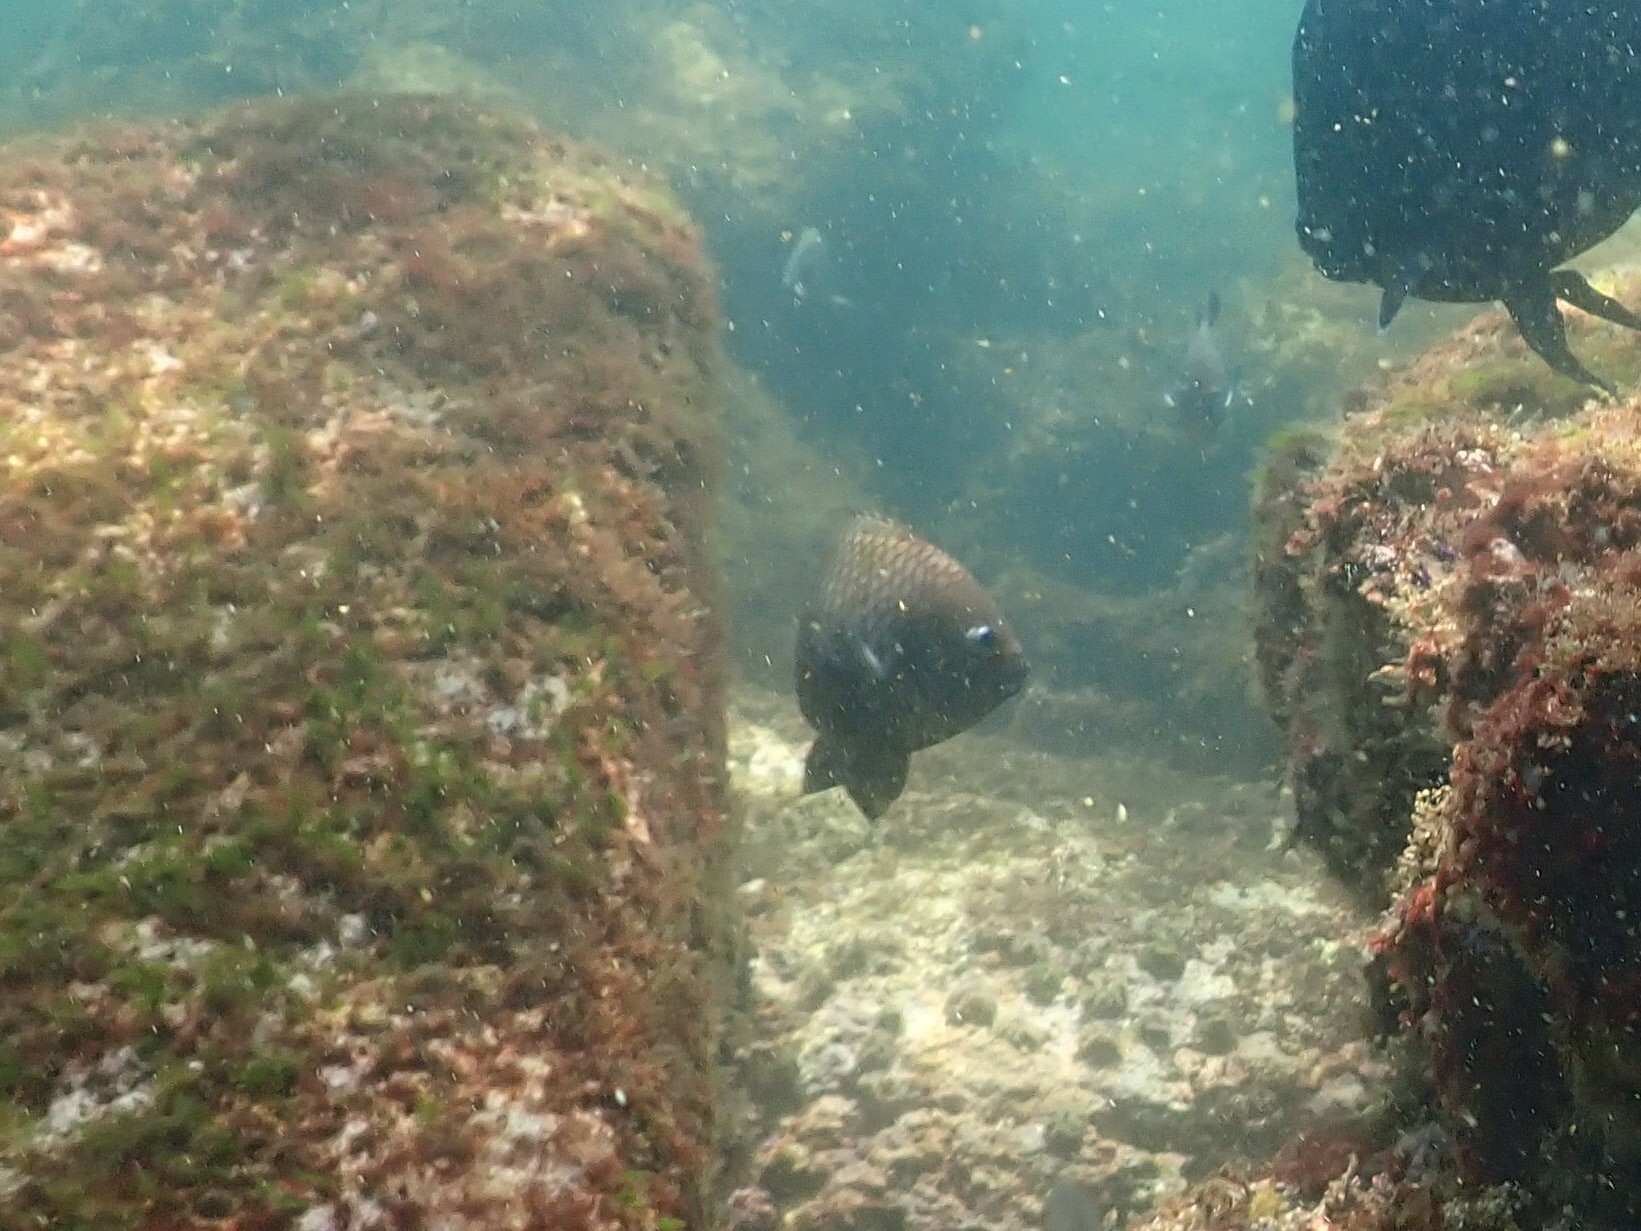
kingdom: Animalia
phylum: Chordata
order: Perciformes
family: Pomacentridae
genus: Stegastes
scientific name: Stegastes acapulcoensis
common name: Acapulco damselfish
